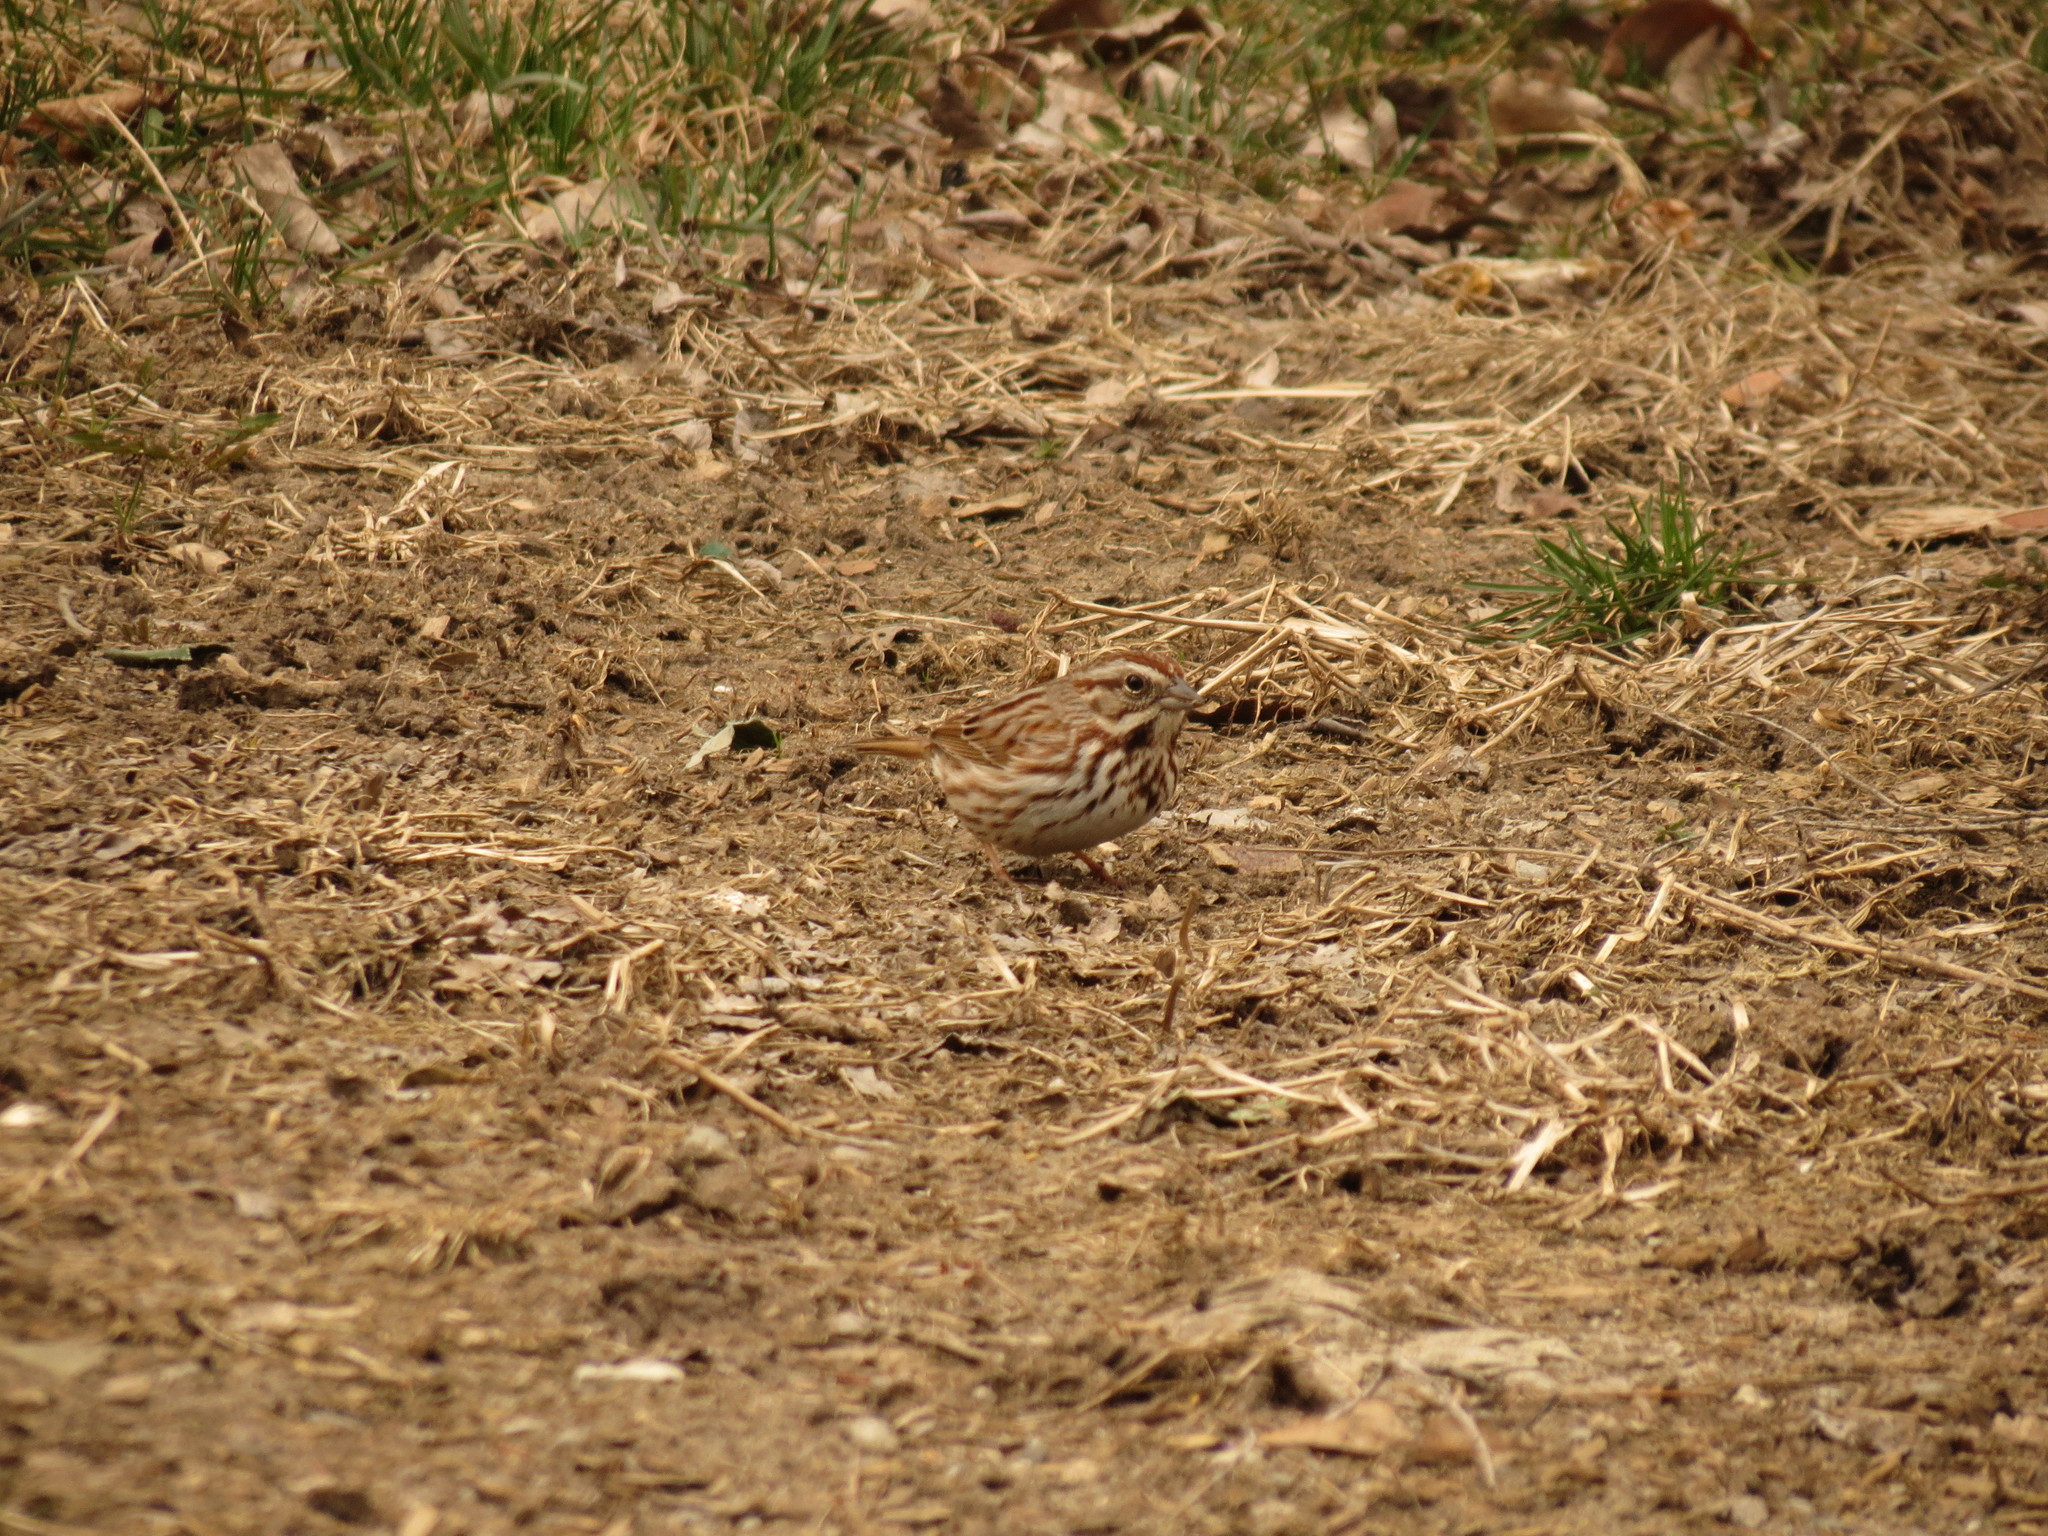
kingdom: Animalia
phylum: Chordata
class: Aves
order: Passeriformes
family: Passerellidae
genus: Melospiza
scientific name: Melospiza melodia
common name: Song sparrow
